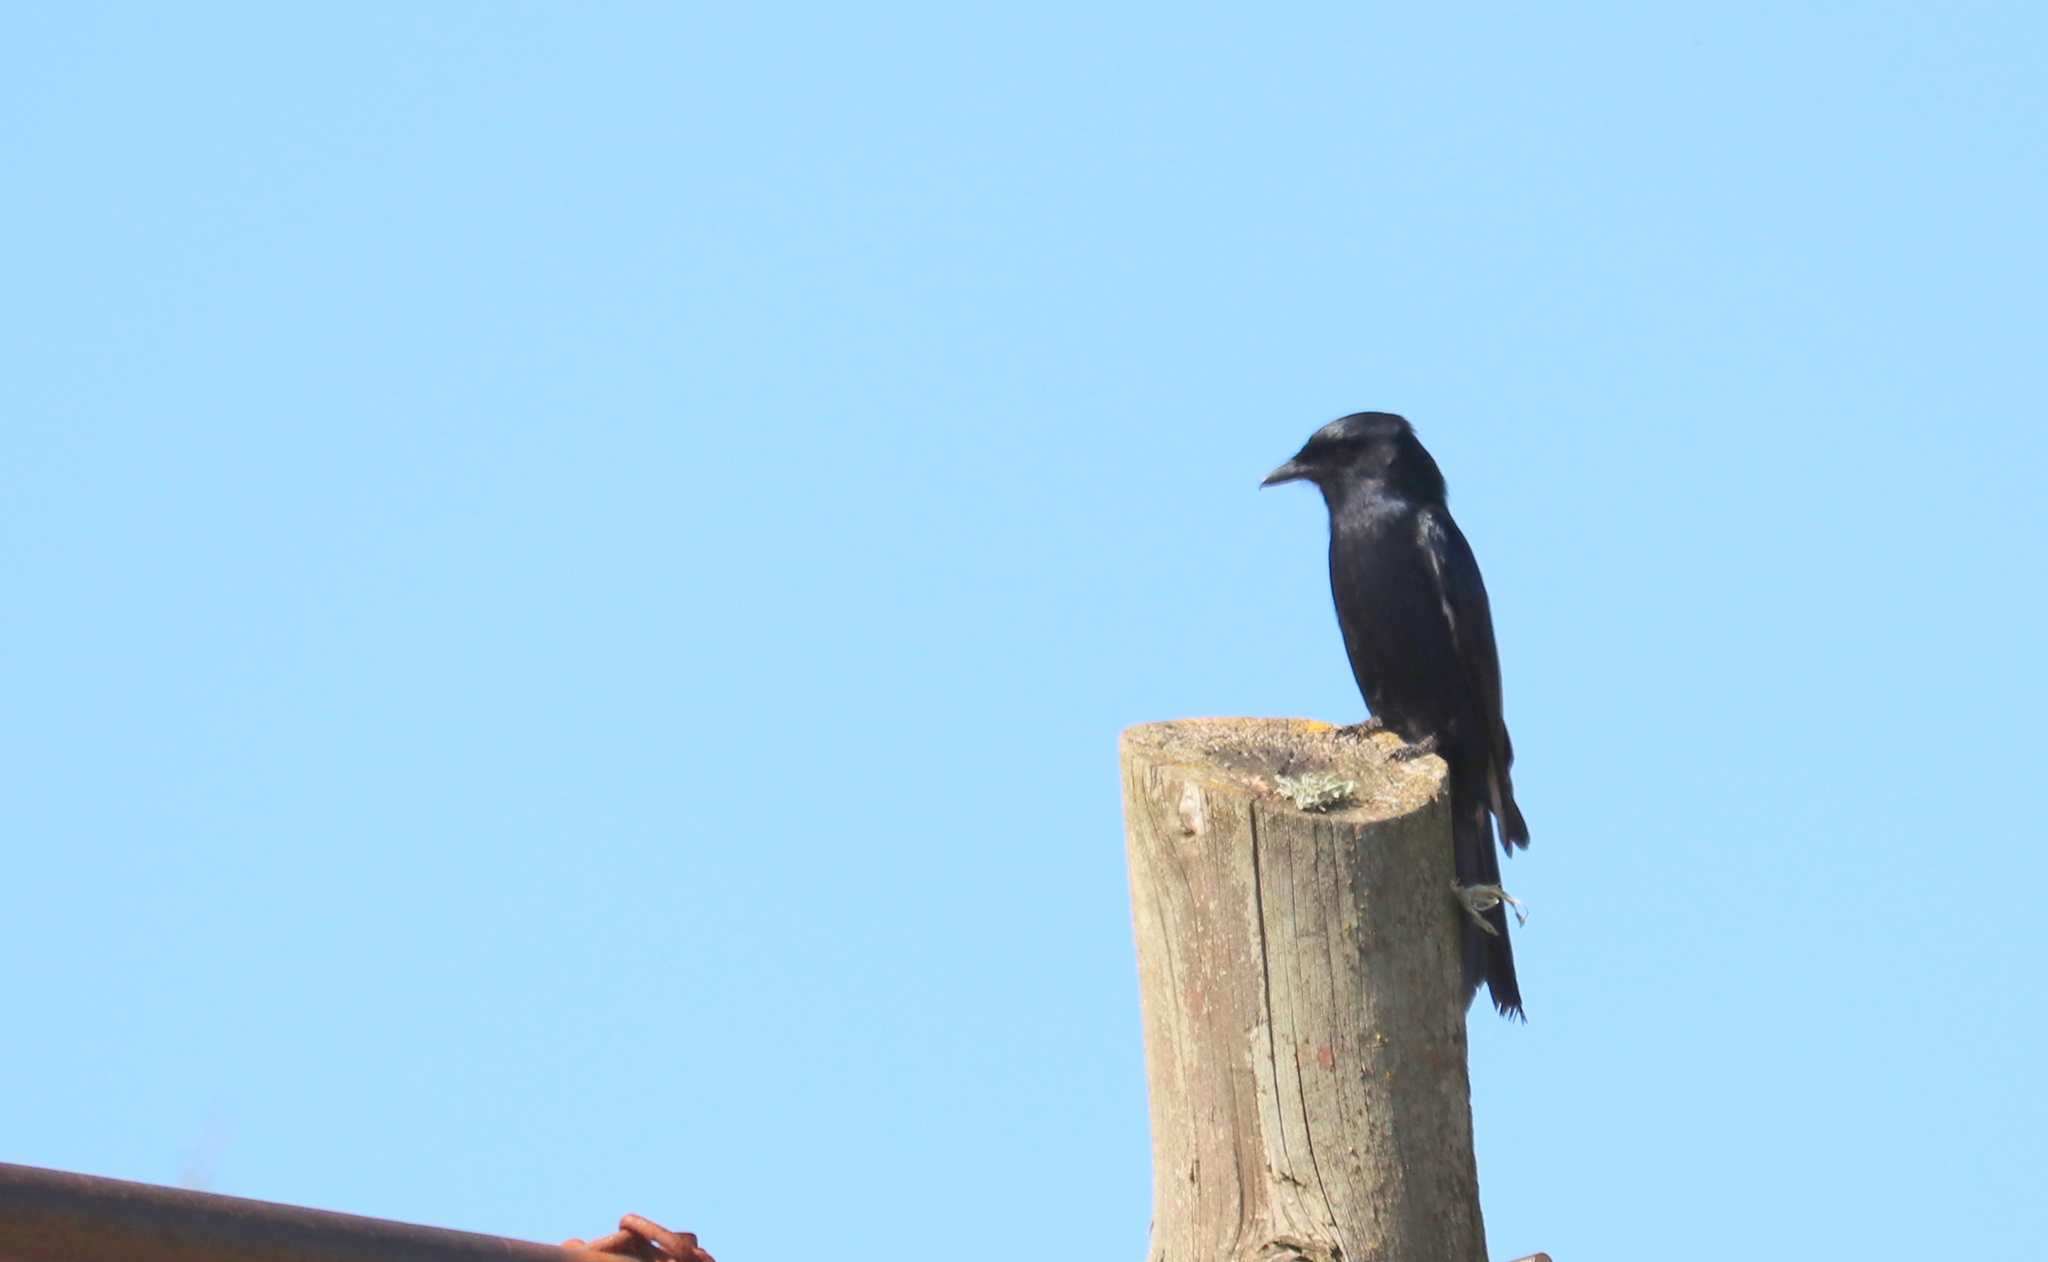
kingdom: Animalia
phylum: Chordata
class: Aves
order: Passeriformes
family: Dicruridae
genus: Dicrurus
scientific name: Dicrurus adsimilis
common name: Fork-tailed drongo
